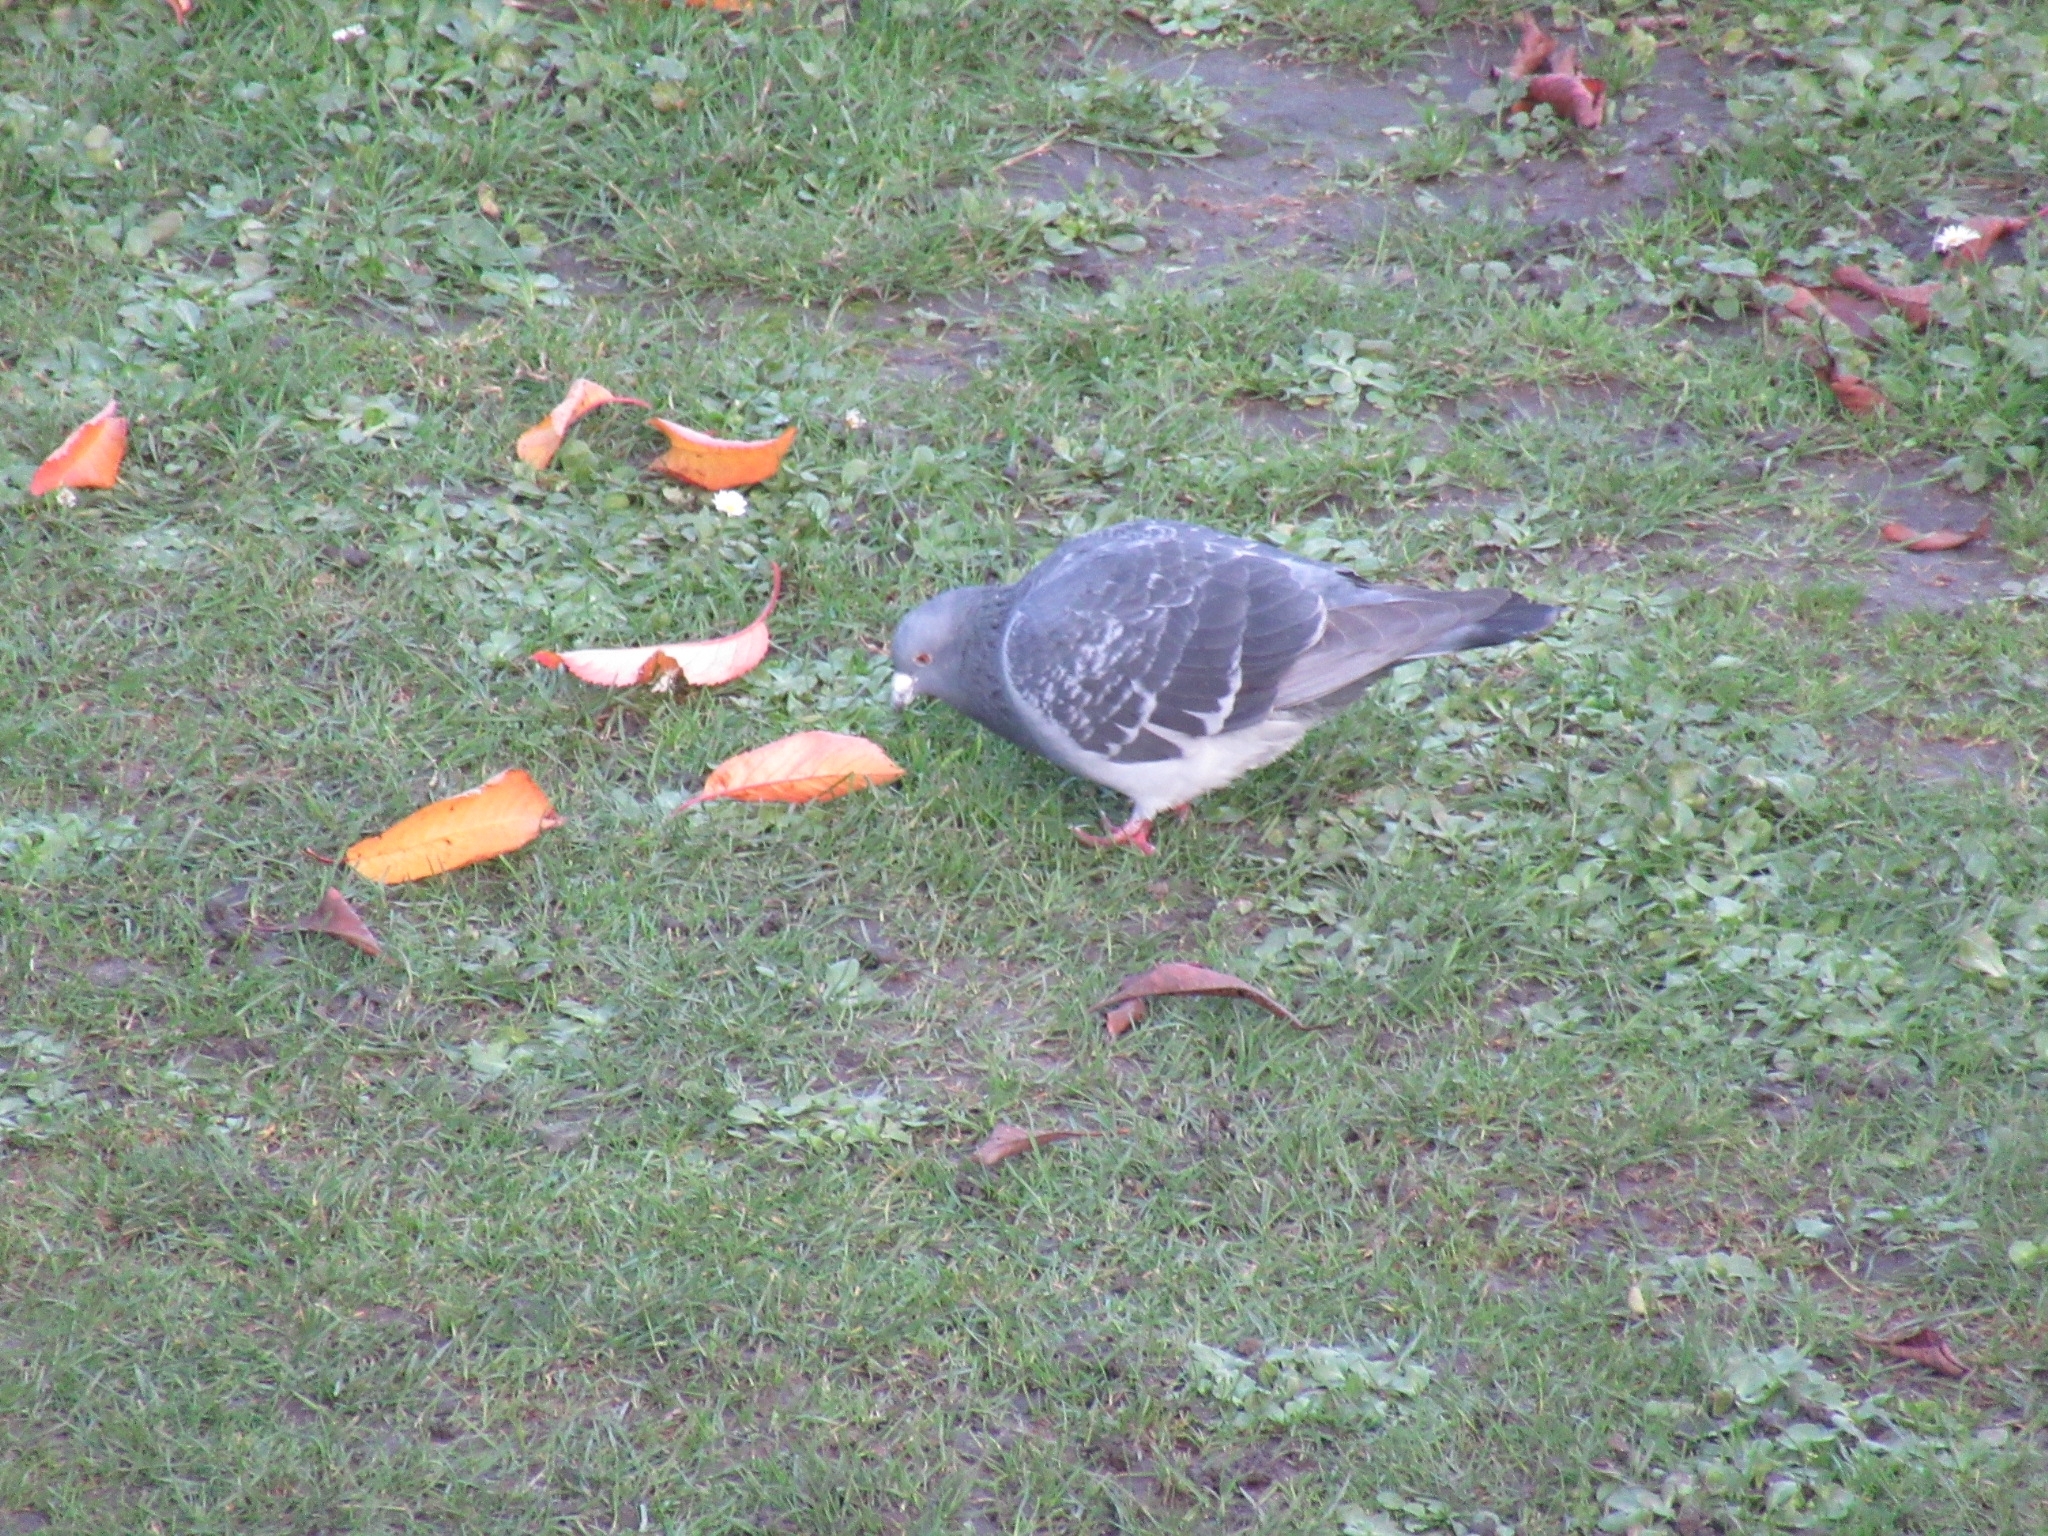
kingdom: Animalia
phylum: Chordata
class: Aves
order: Columbiformes
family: Columbidae
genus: Columba
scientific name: Columba livia
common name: Rock pigeon
